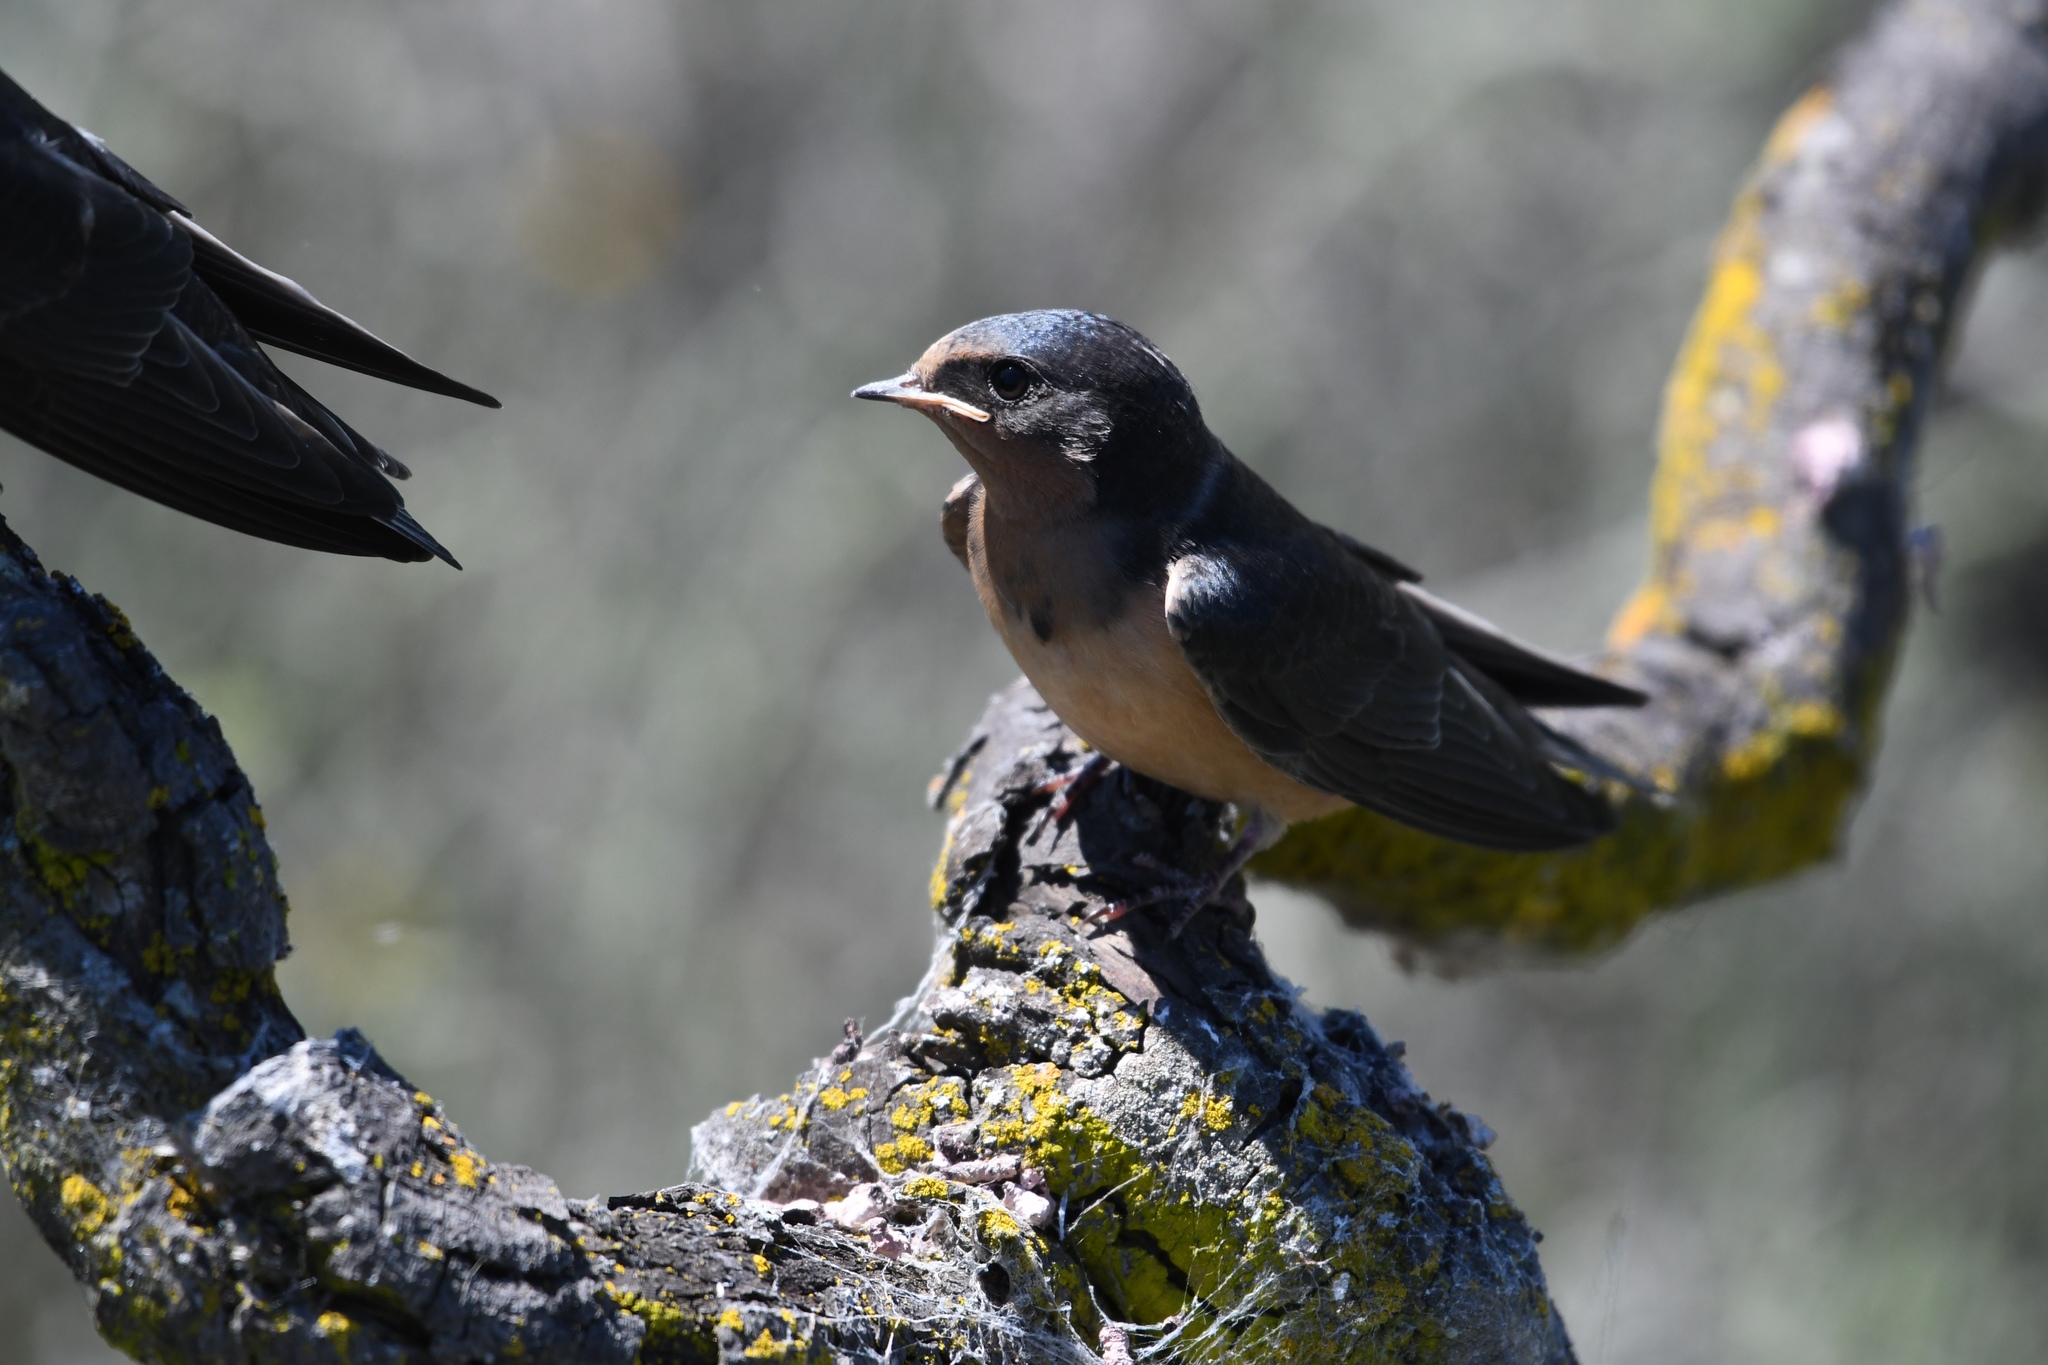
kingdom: Animalia
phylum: Chordata
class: Aves
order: Passeriformes
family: Hirundinidae
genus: Hirundo
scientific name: Hirundo rustica
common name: Barn swallow
